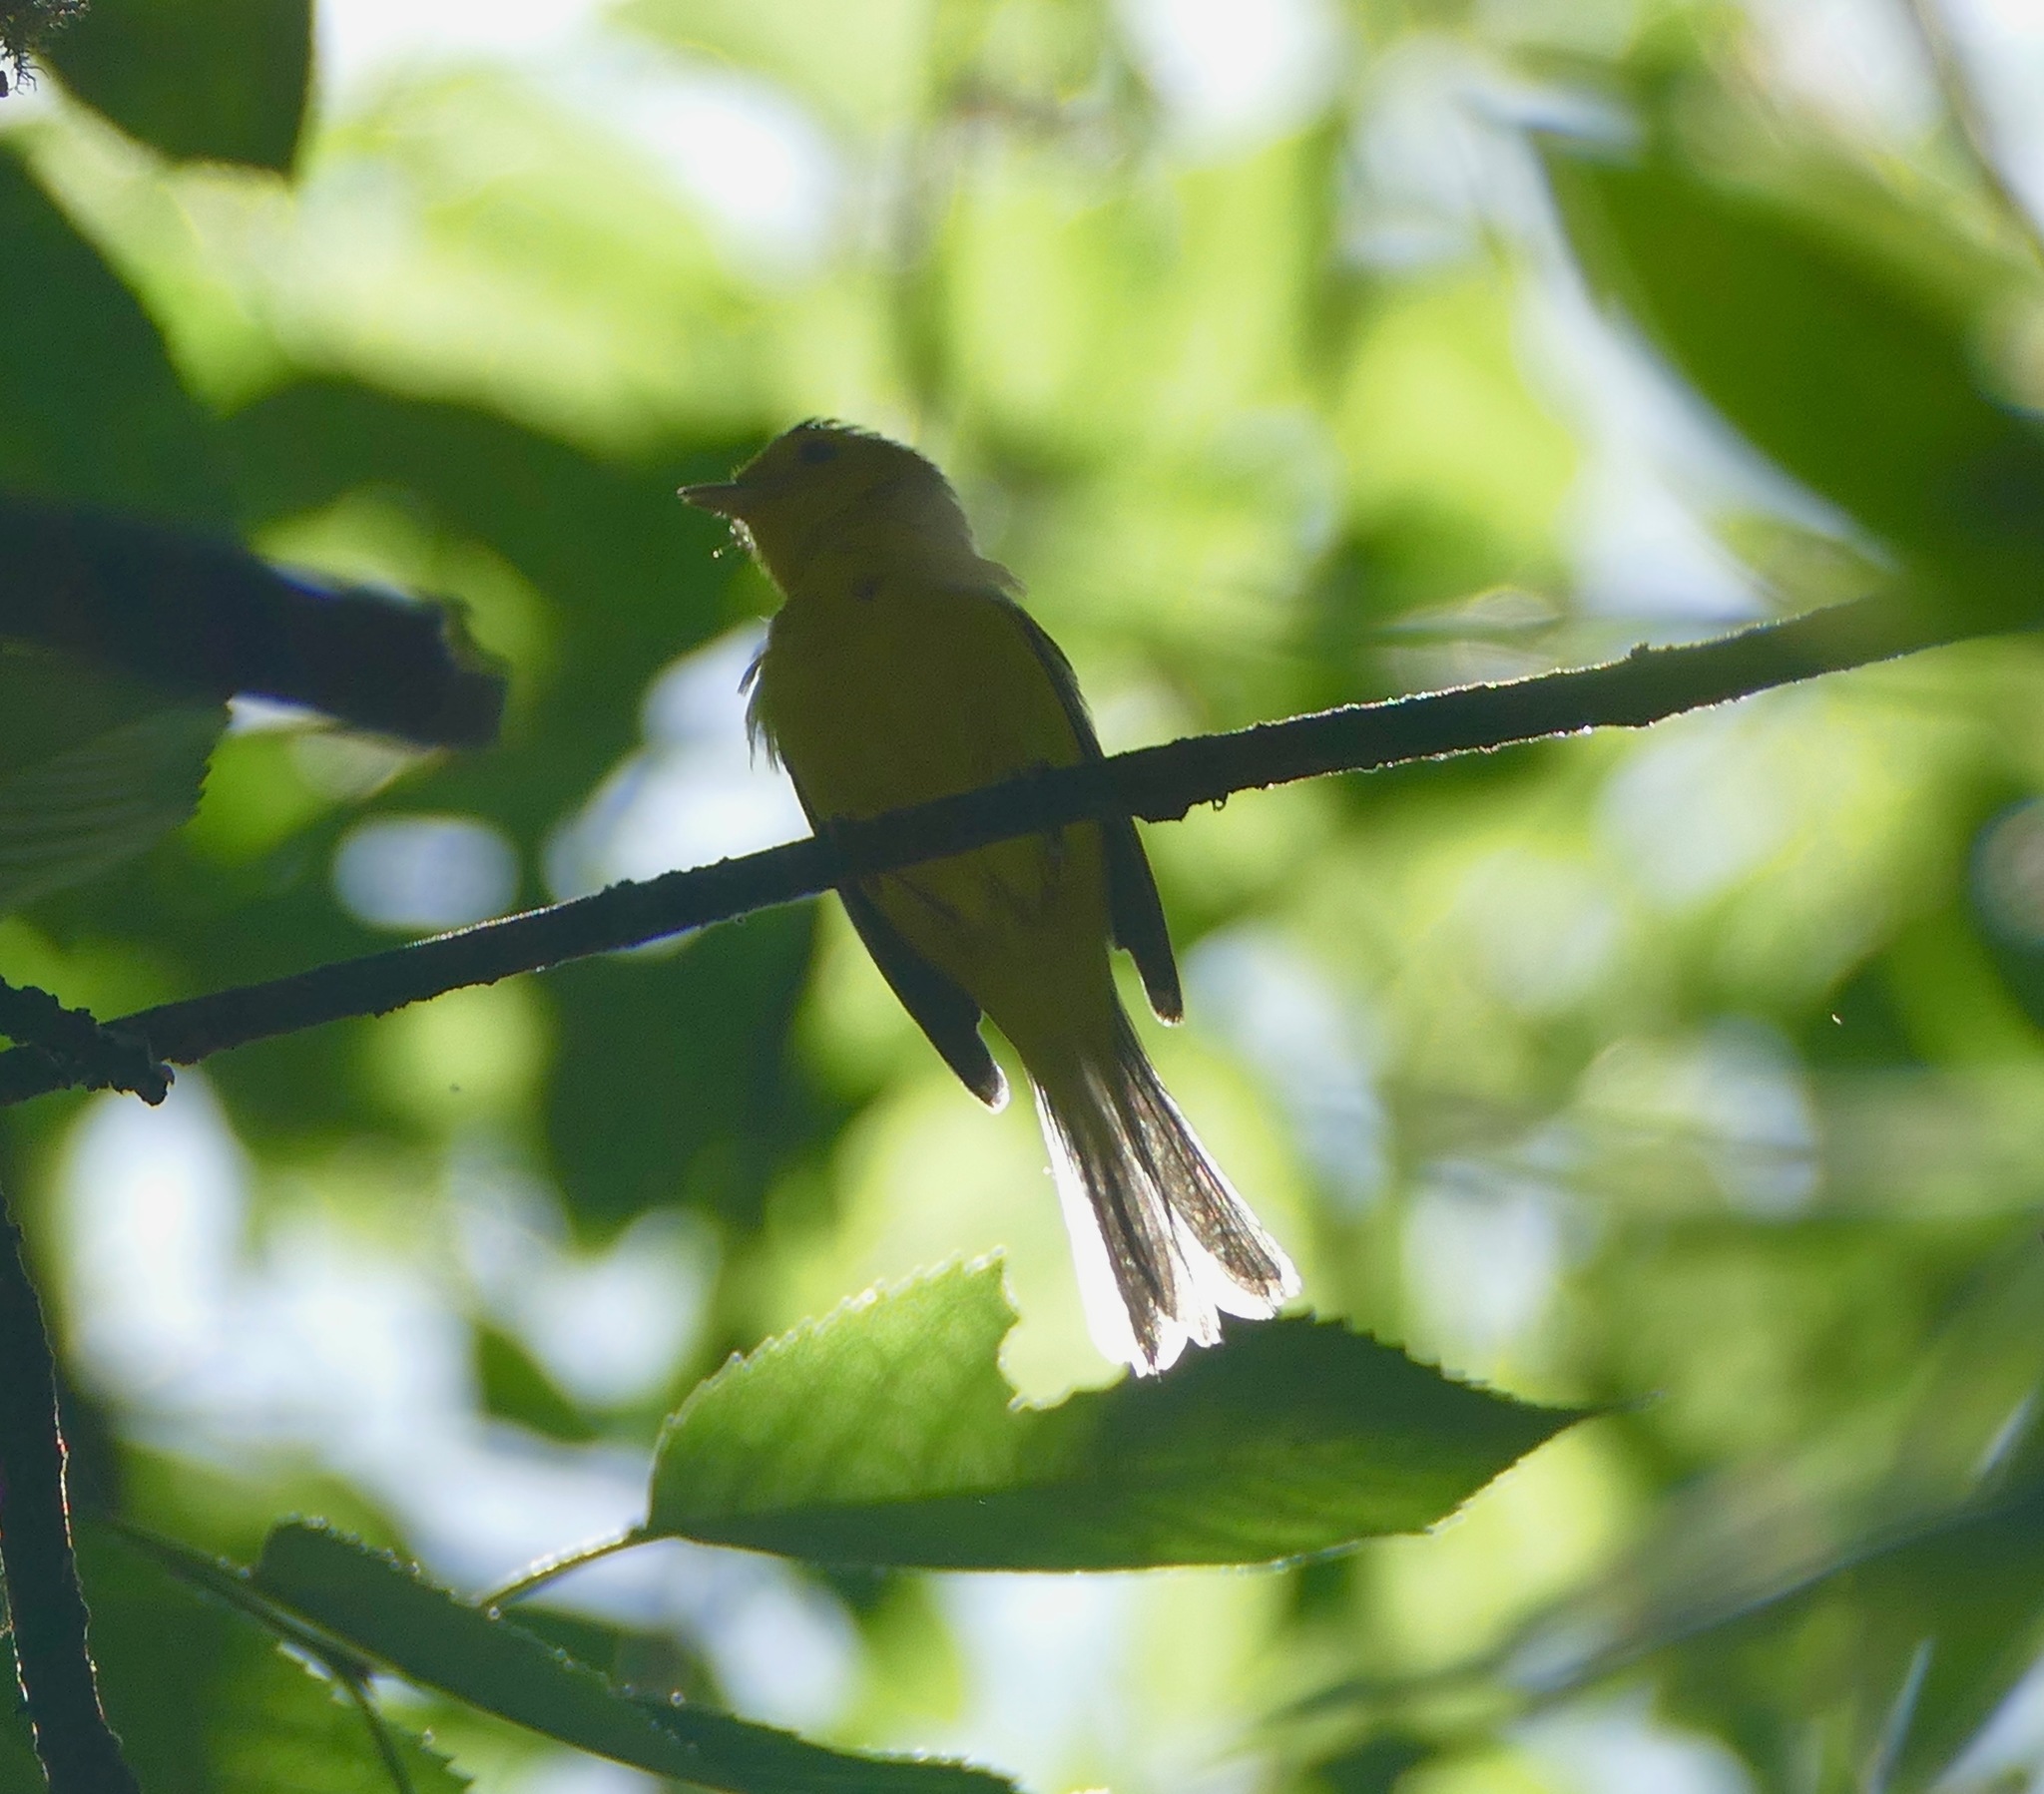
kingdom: Animalia
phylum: Chordata
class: Aves
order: Passeriformes
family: Parulidae
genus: Cardellina
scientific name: Cardellina pusilla
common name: Wilson's warbler
